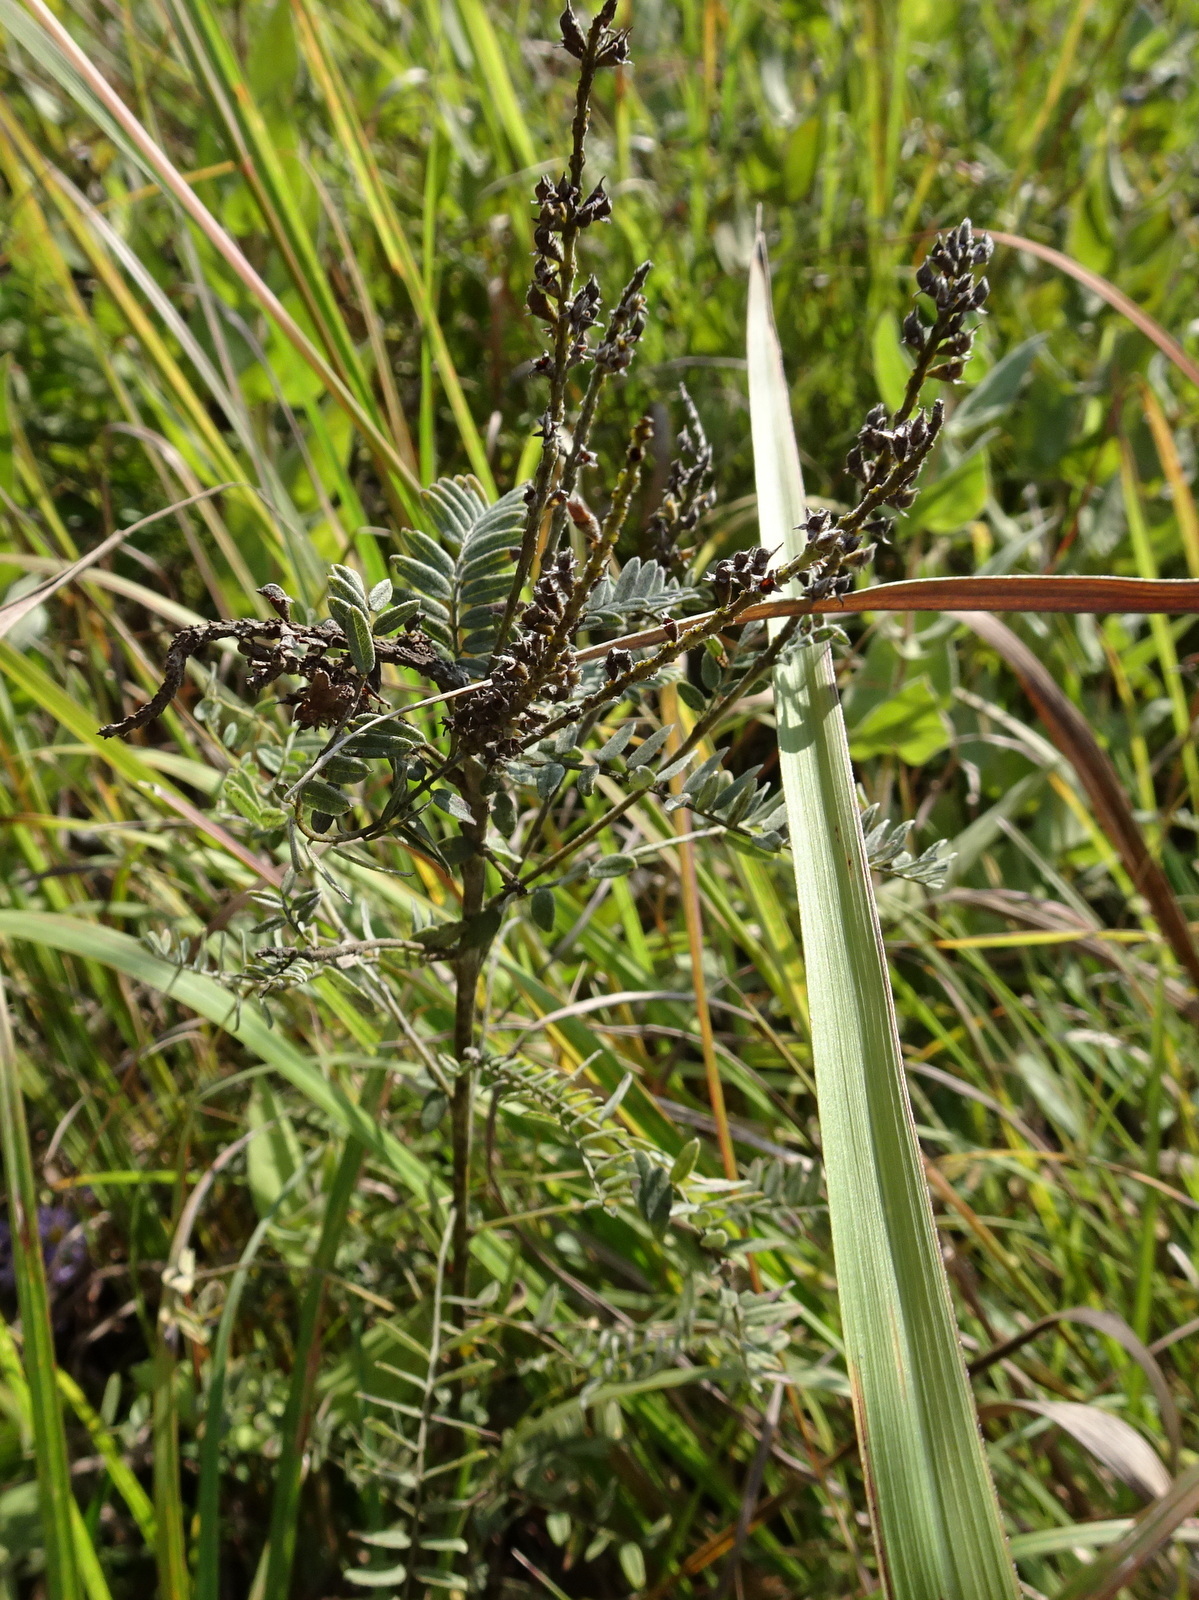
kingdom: Plantae
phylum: Tracheophyta
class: Magnoliopsida
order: Fabales
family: Fabaceae
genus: Amorpha
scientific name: Amorpha canescens
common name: Leadplant
